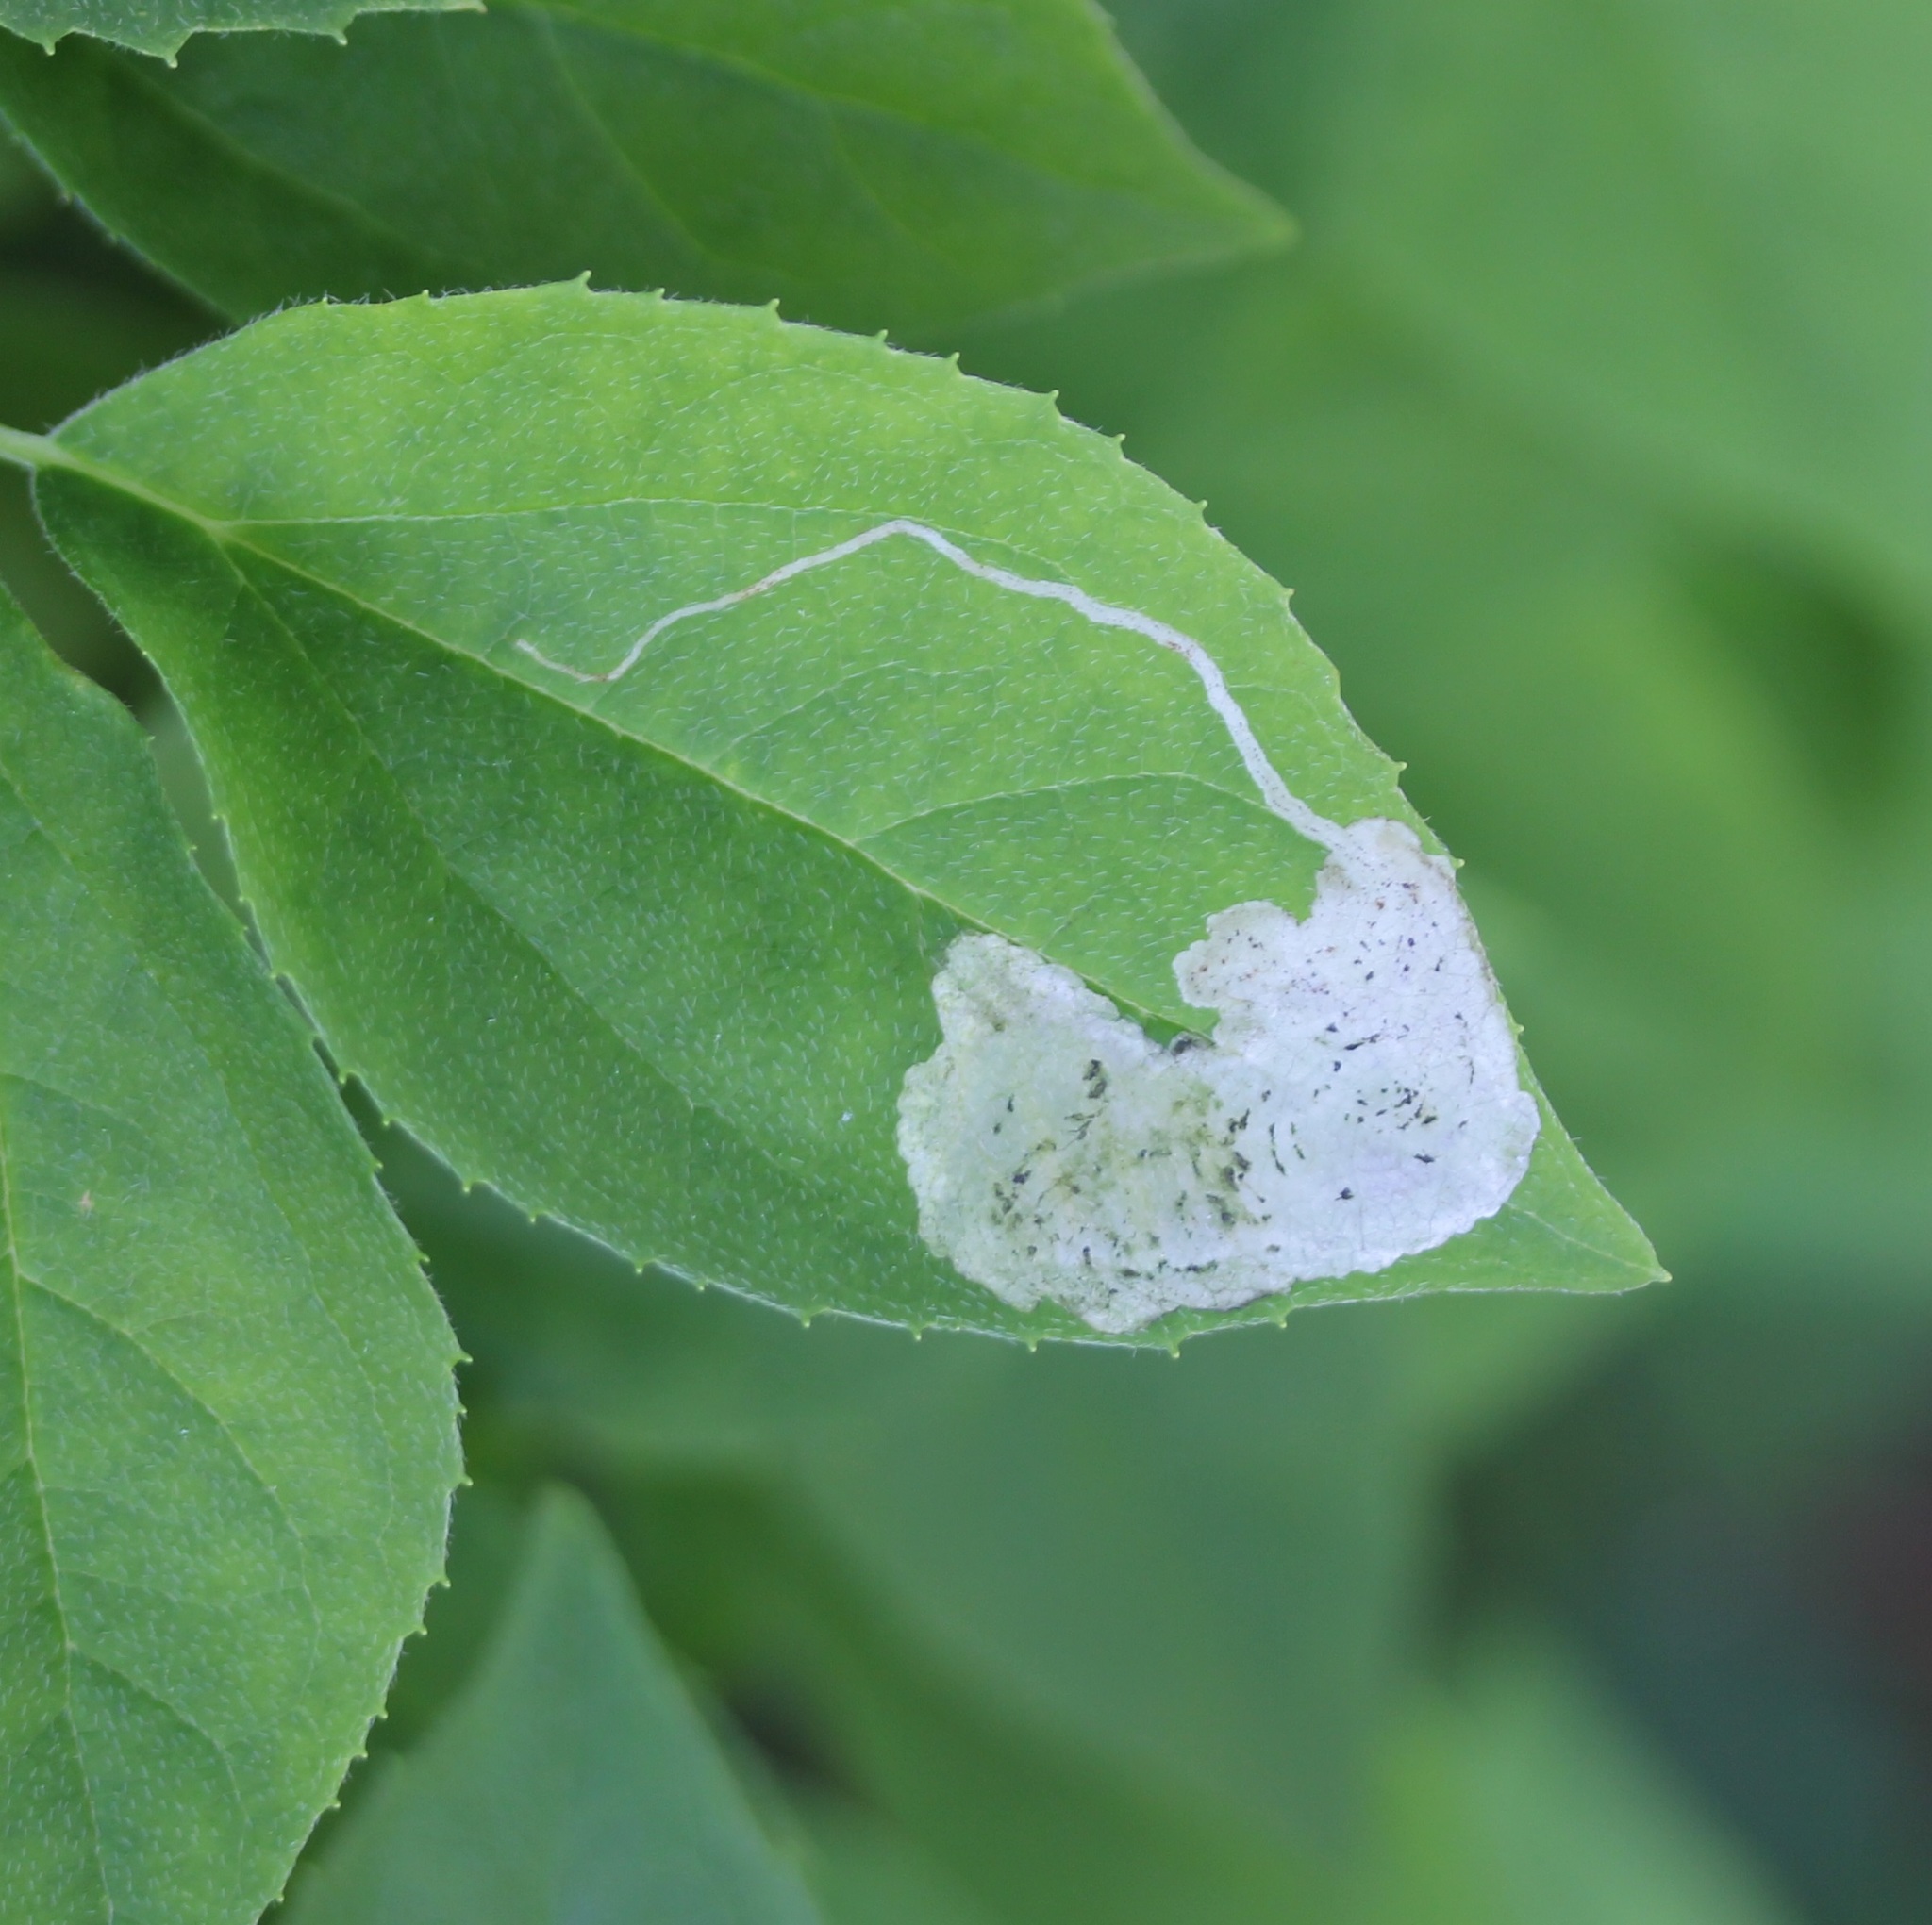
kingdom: Animalia
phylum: Arthropoda
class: Insecta
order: Diptera
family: Agromyzidae
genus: Liriomyza
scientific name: Liriomyza philadelphivora
